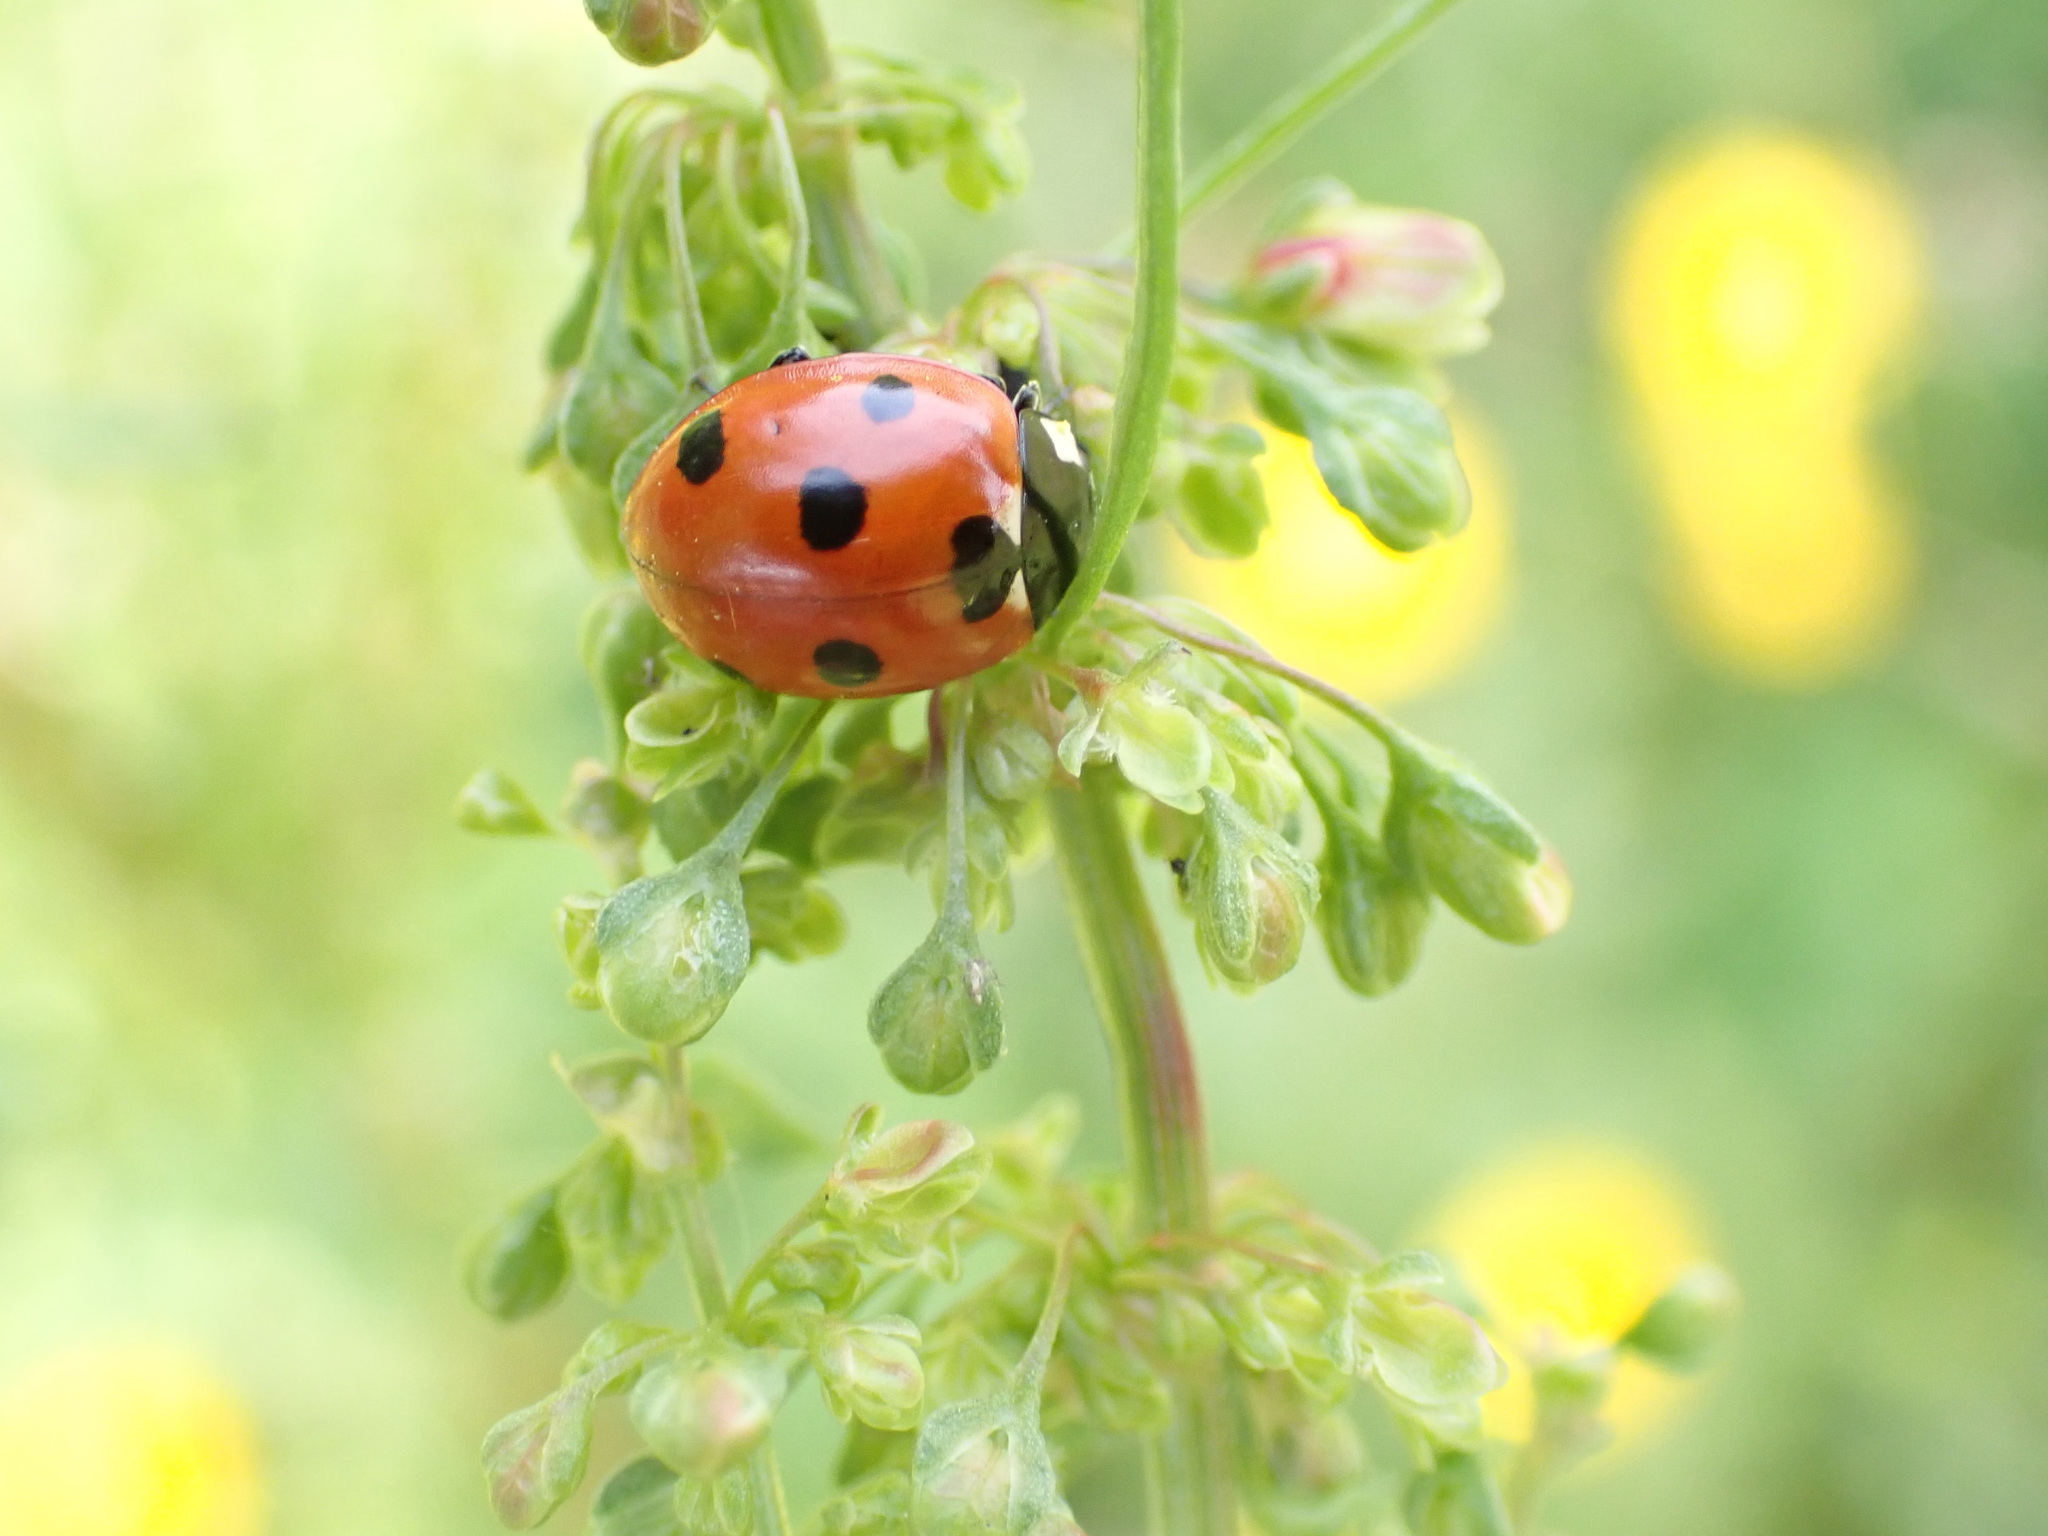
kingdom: Animalia
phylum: Arthropoda
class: Insecta
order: Coleoptera
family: Coccinellidae
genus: Coccinella
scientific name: Coccinella septempunctata
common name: Sevenspotted lady beetle
